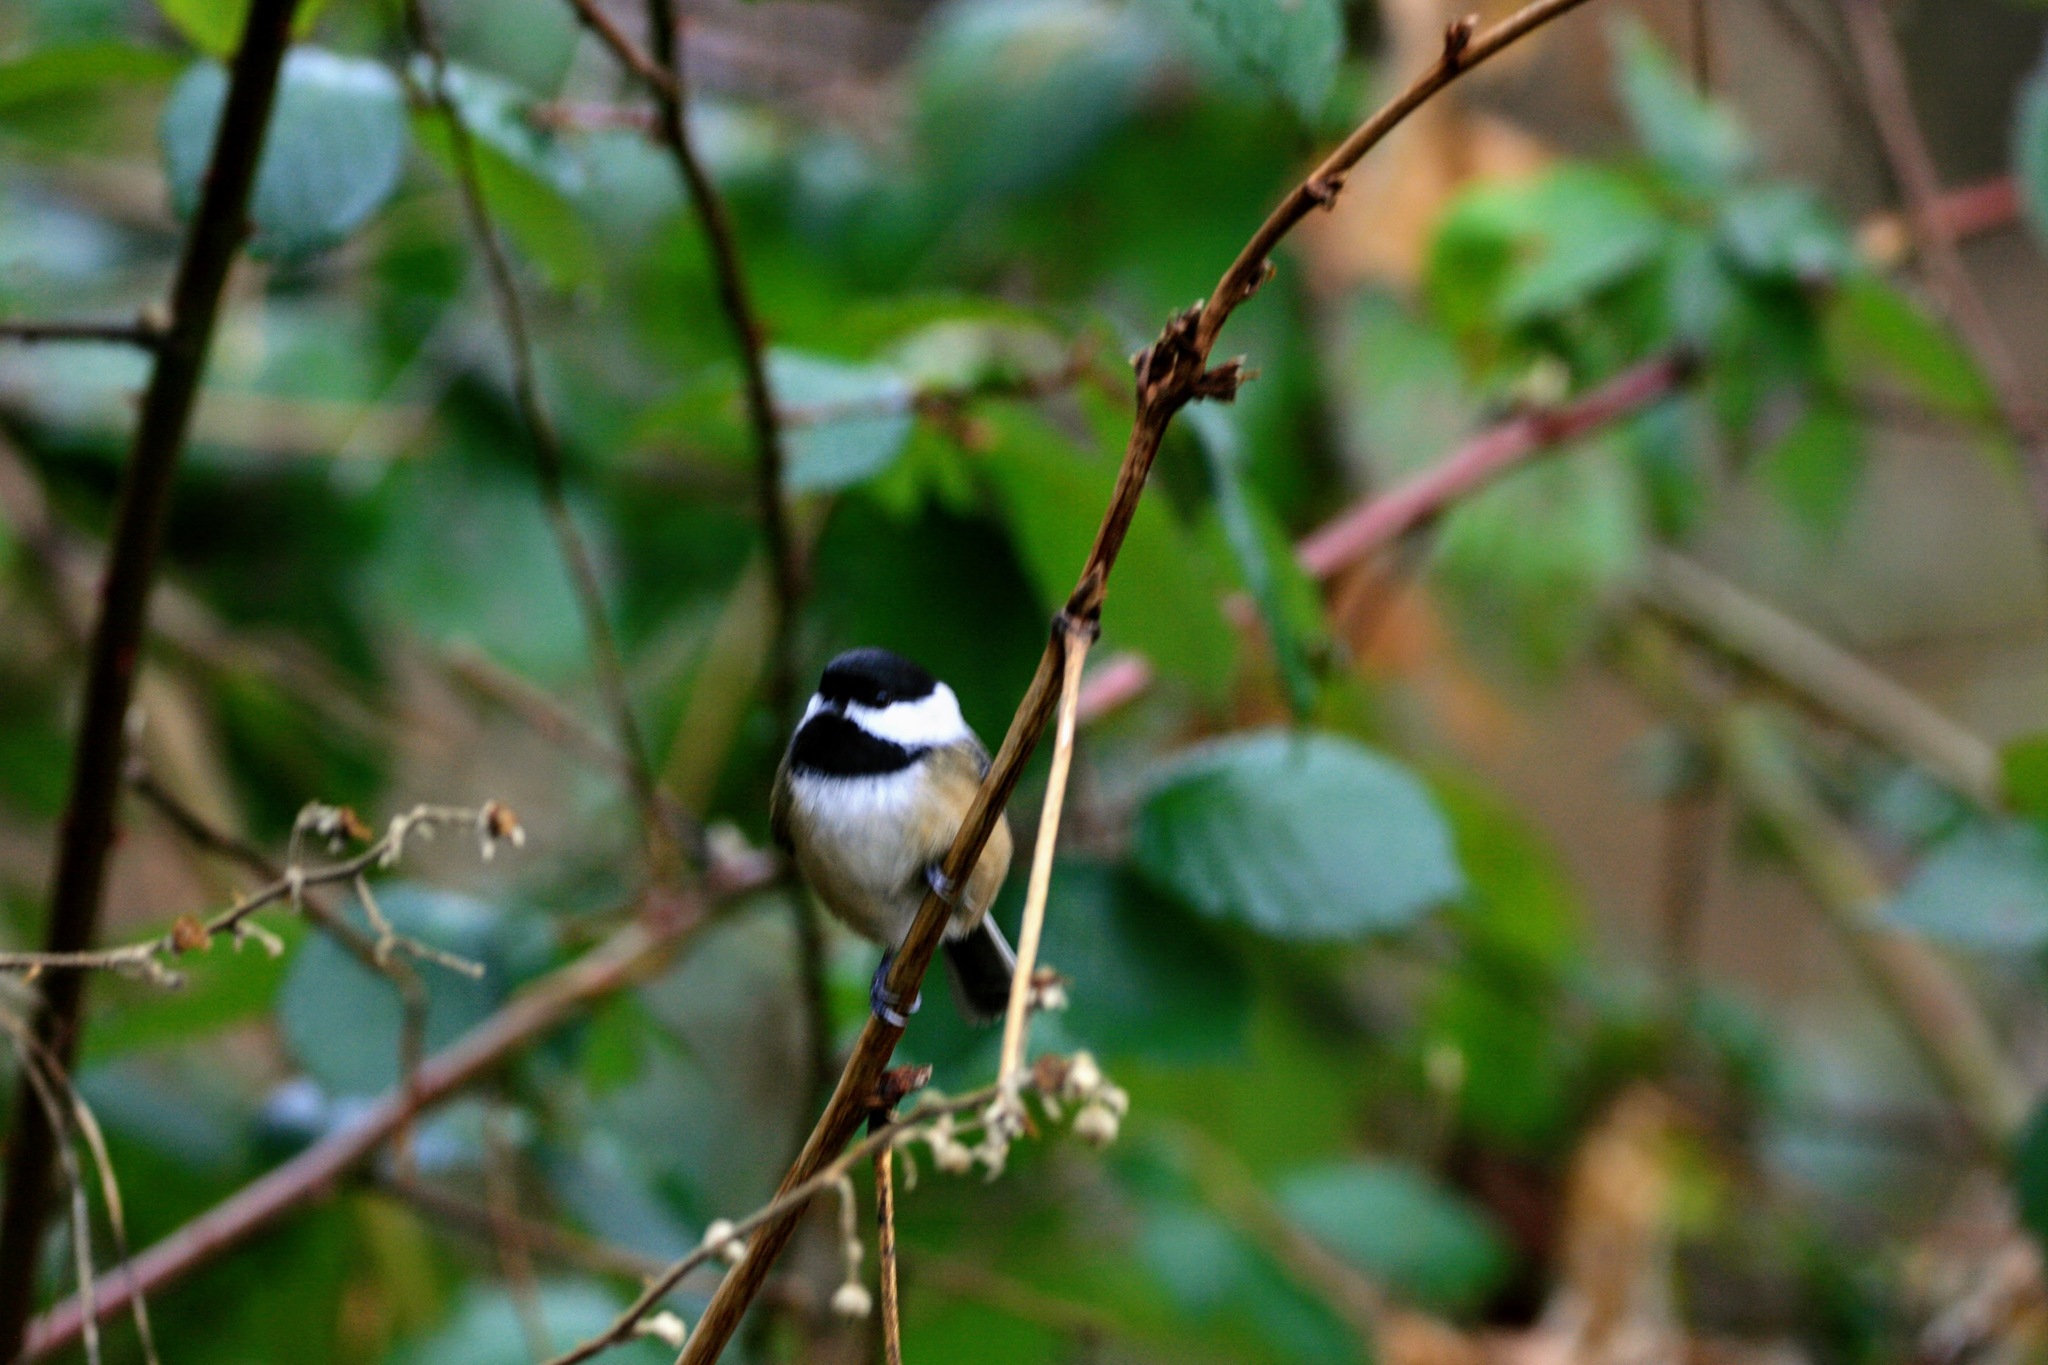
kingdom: Animalia
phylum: Chordata
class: Aves
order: Passeriformes
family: Paridae
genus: Poecile
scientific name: Poecile atricapillus
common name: Black-capped chickadee
